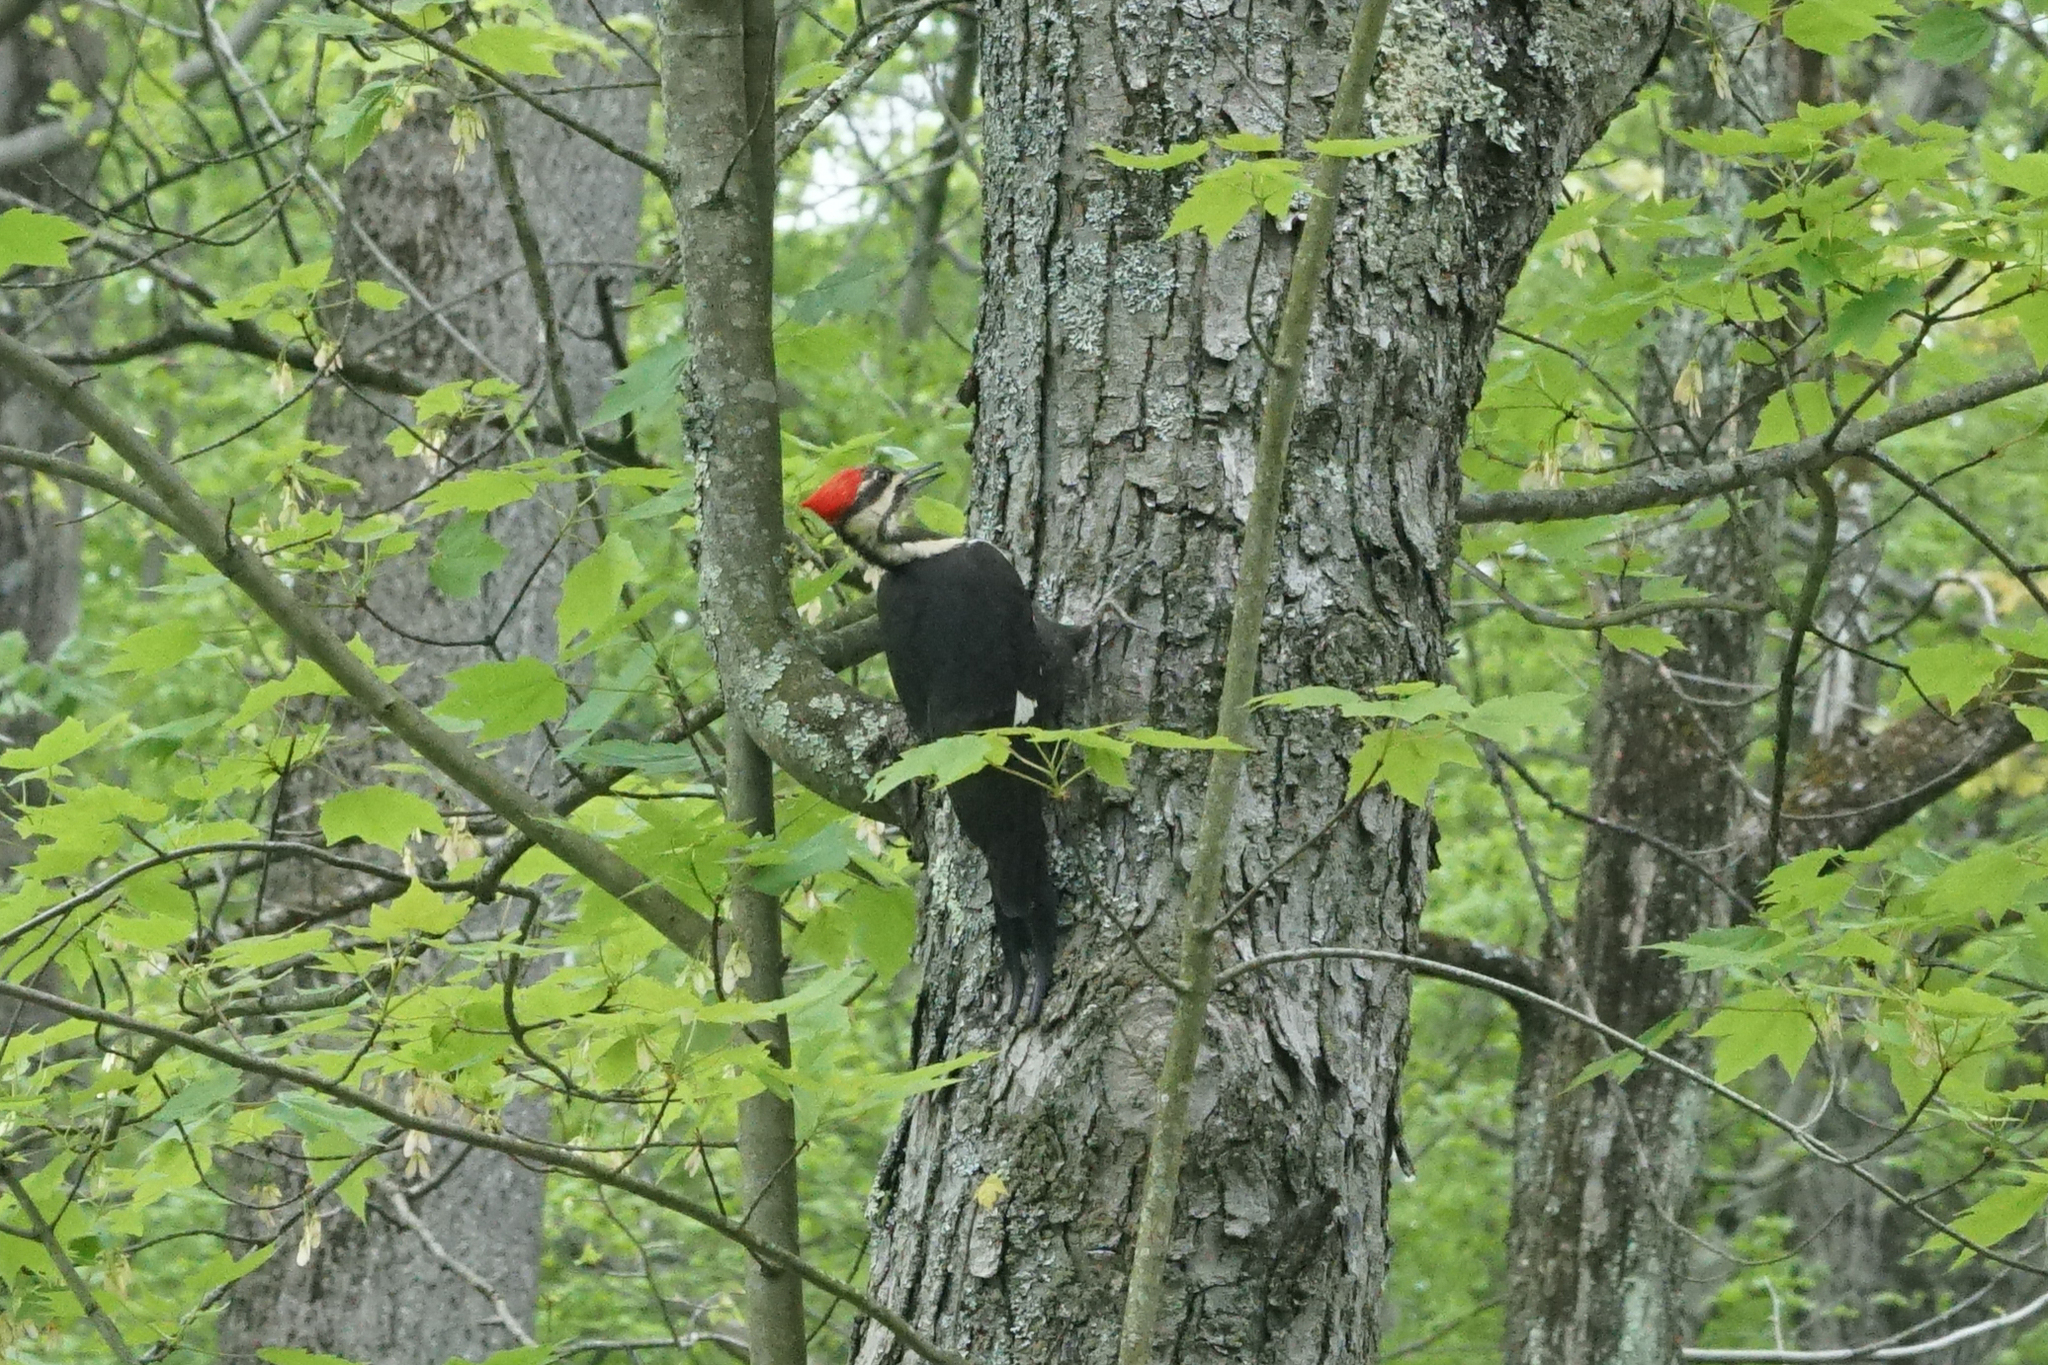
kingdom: Animalia
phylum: Chordata
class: Aves
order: Piciformes
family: Picidae
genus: Dryocopus
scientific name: Dryocopus pileatus
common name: Pileated woodpecker
